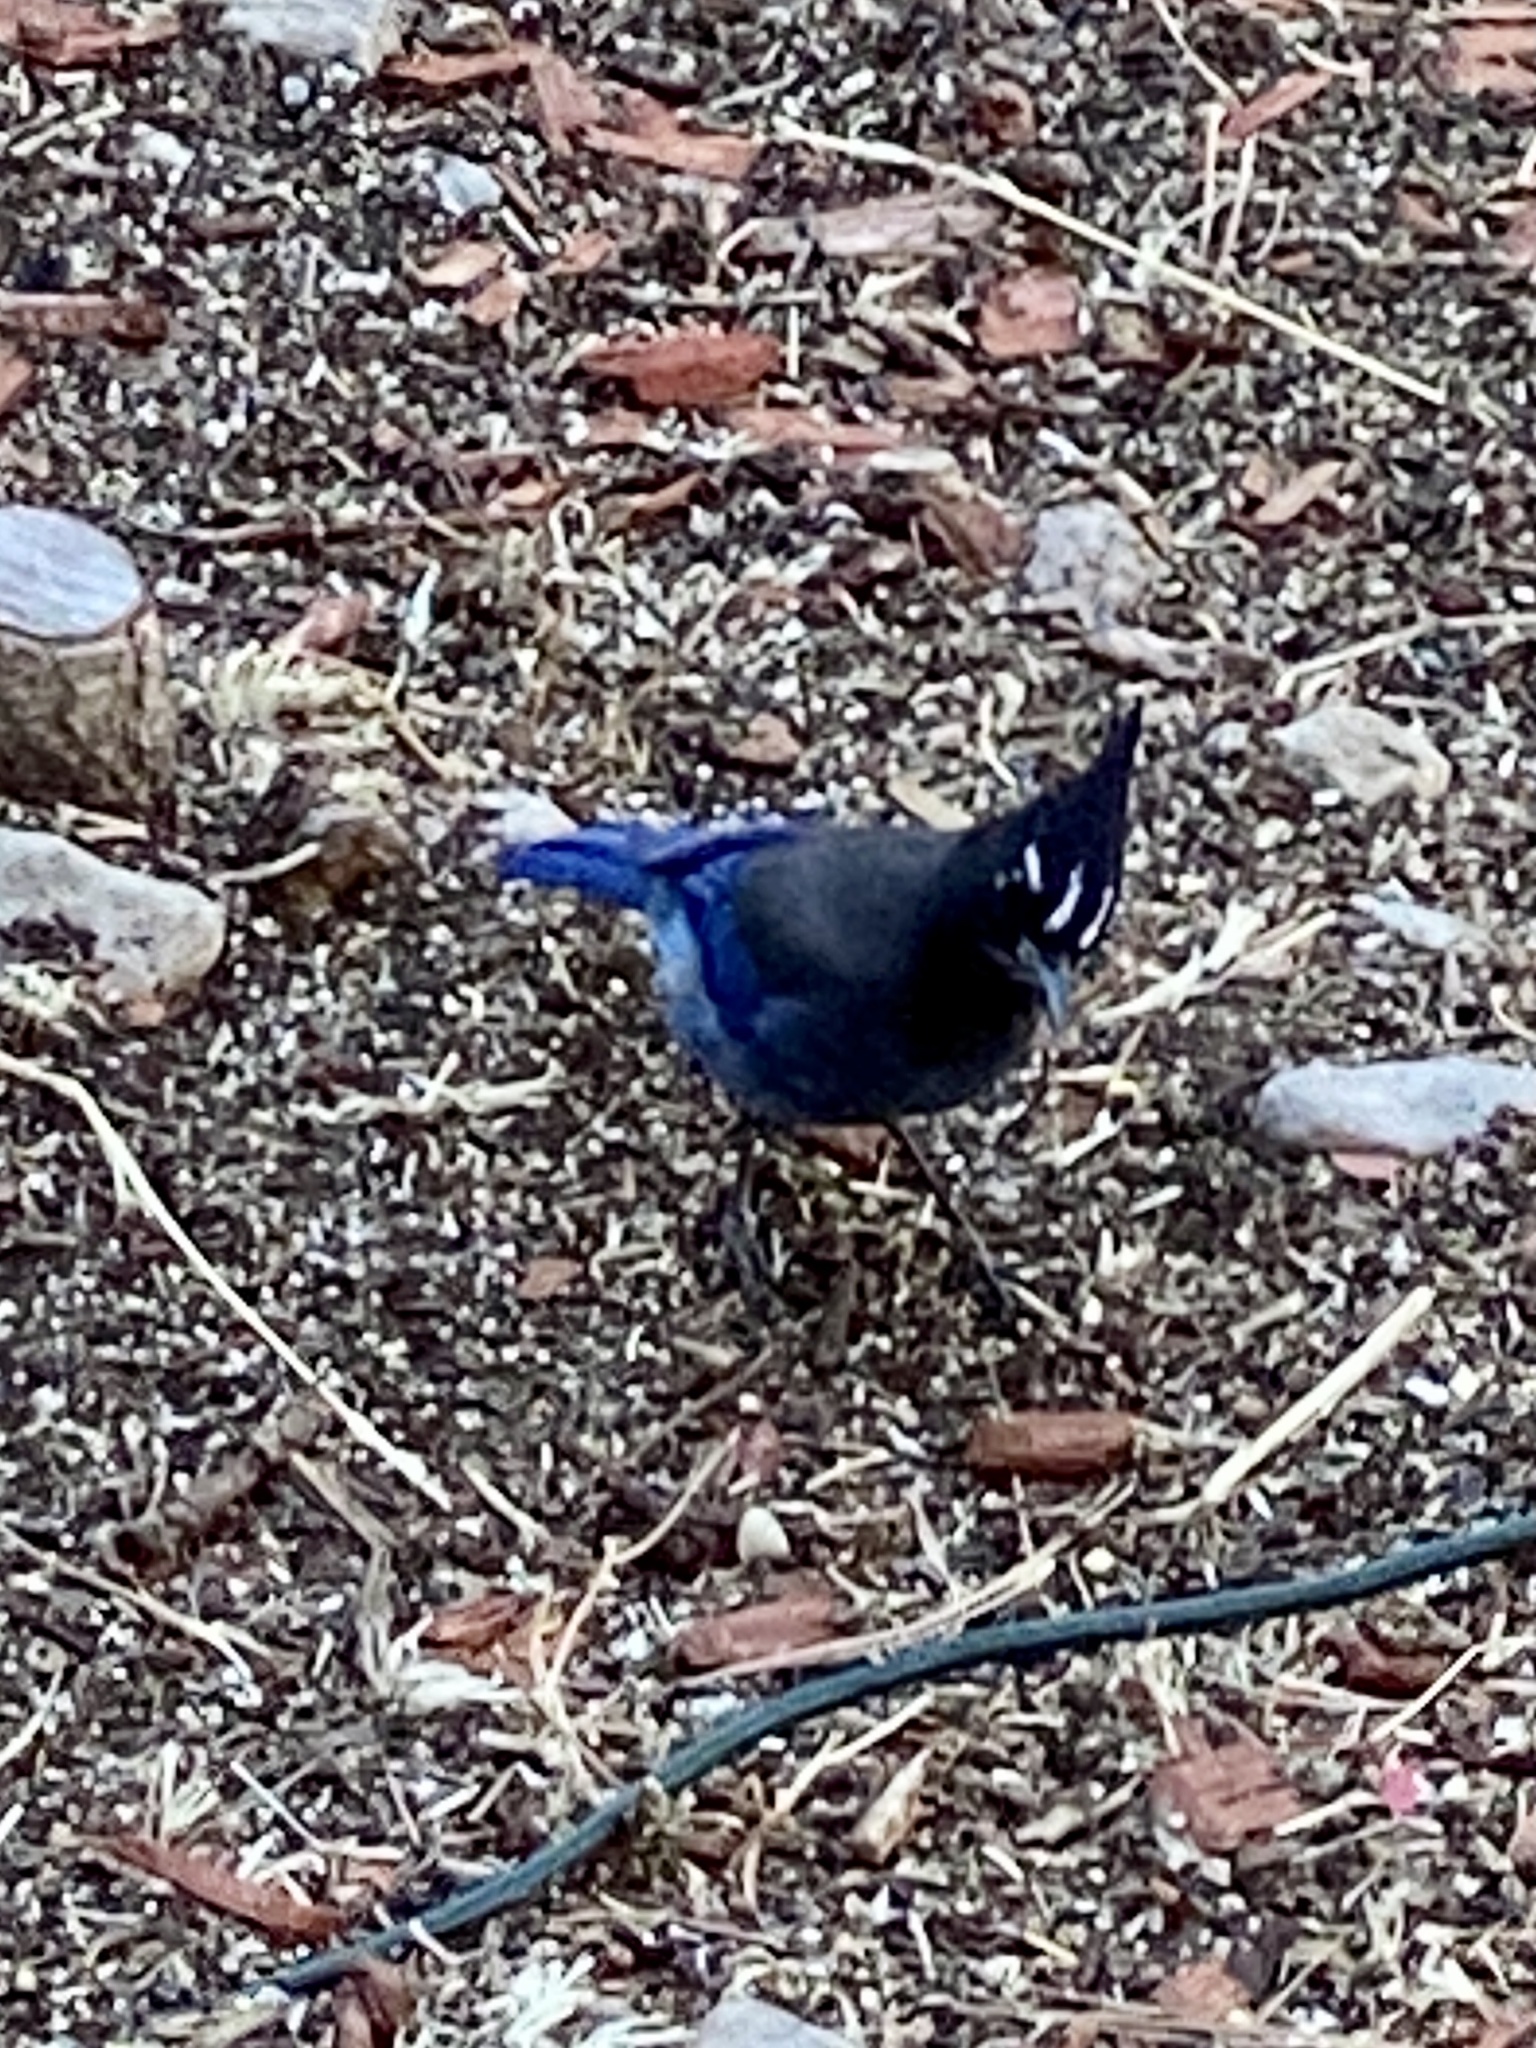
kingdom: Animalia
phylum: Chordata
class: Aves
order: Passeriformes
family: Corvidae
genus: Cyanocitta
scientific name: Cyanocitta stelleri
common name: Steller's jay
